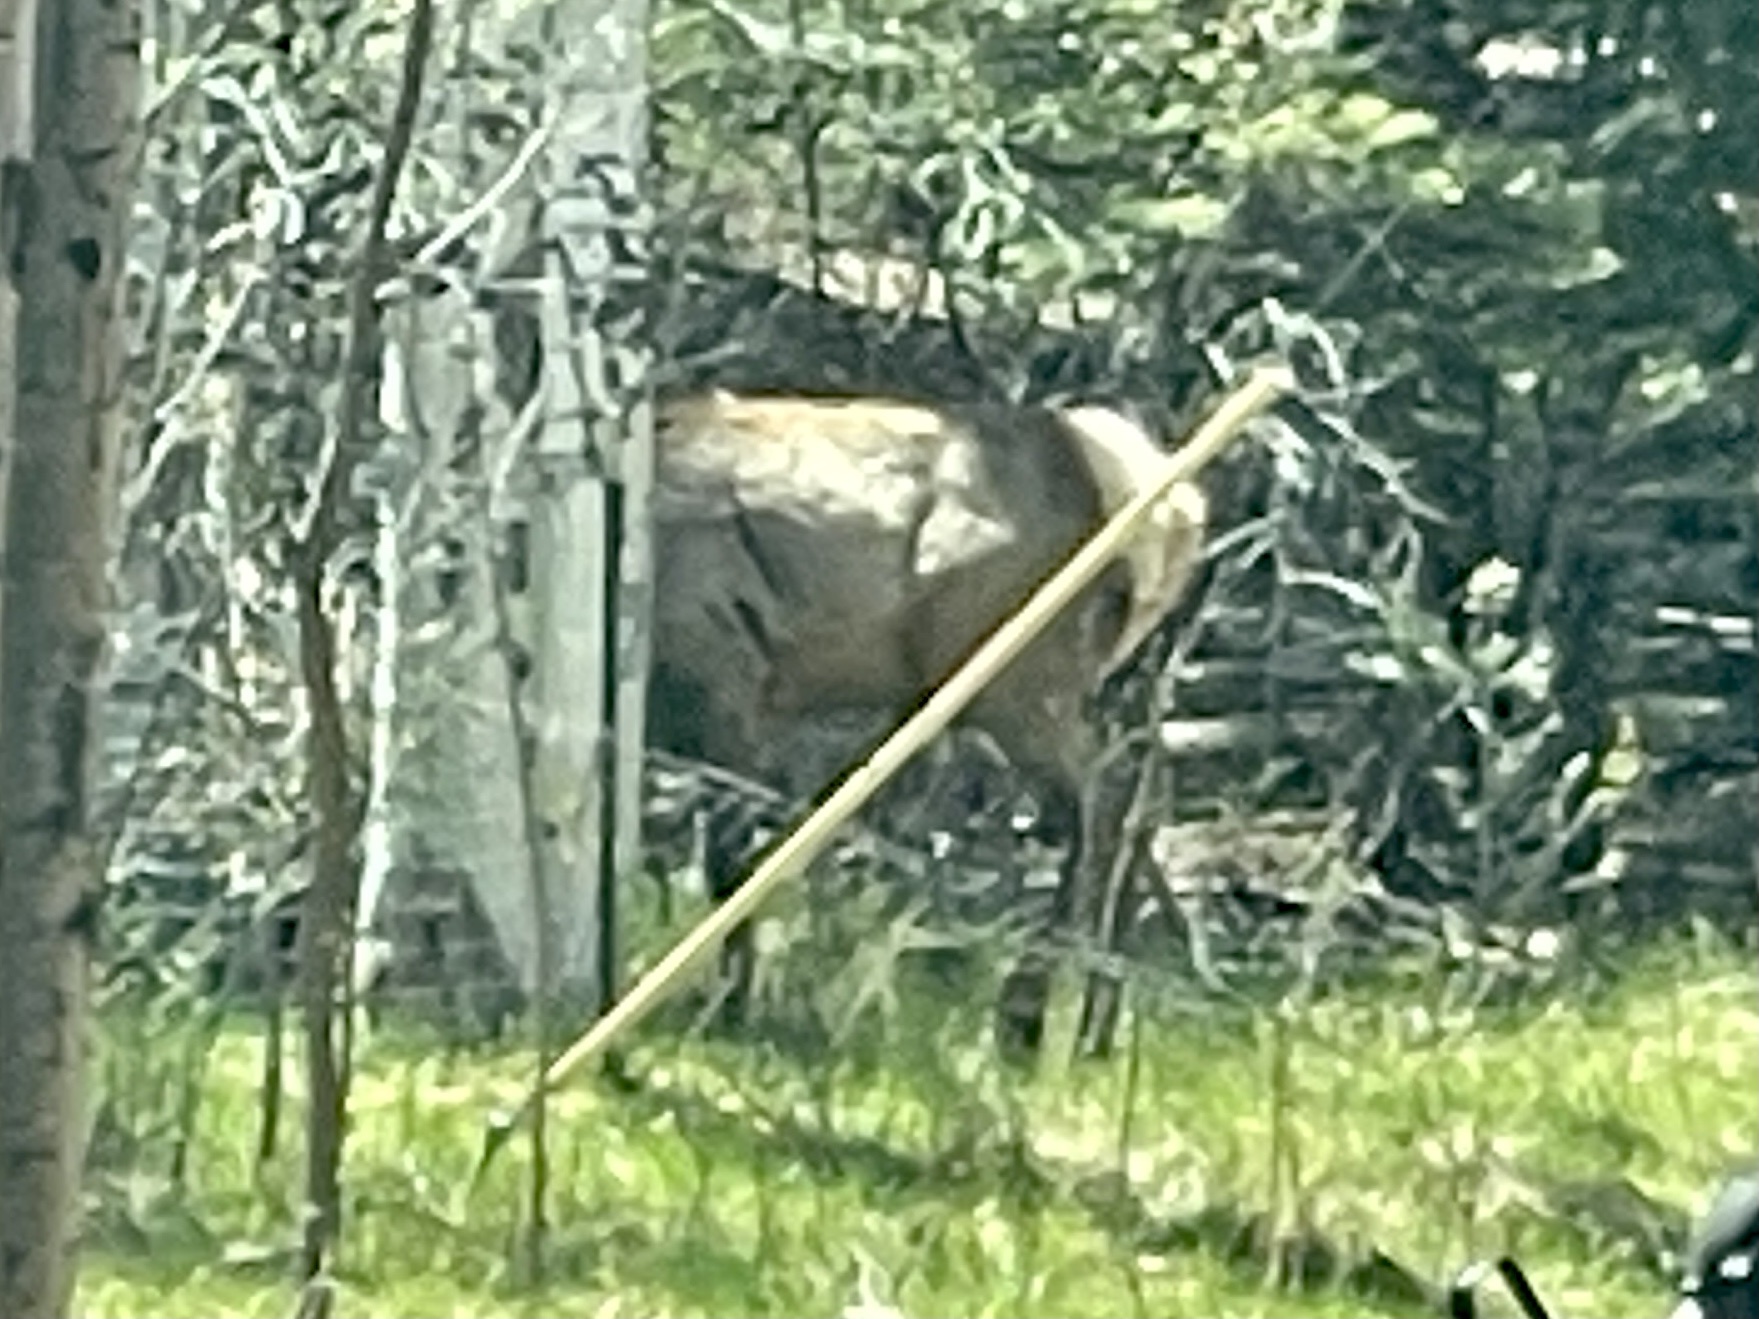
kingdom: Animalia
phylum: Chordata
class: Mammalia
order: Artiodactyla
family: Cervidae
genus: Cervus
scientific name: Cervus elaphus
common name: Red deer
